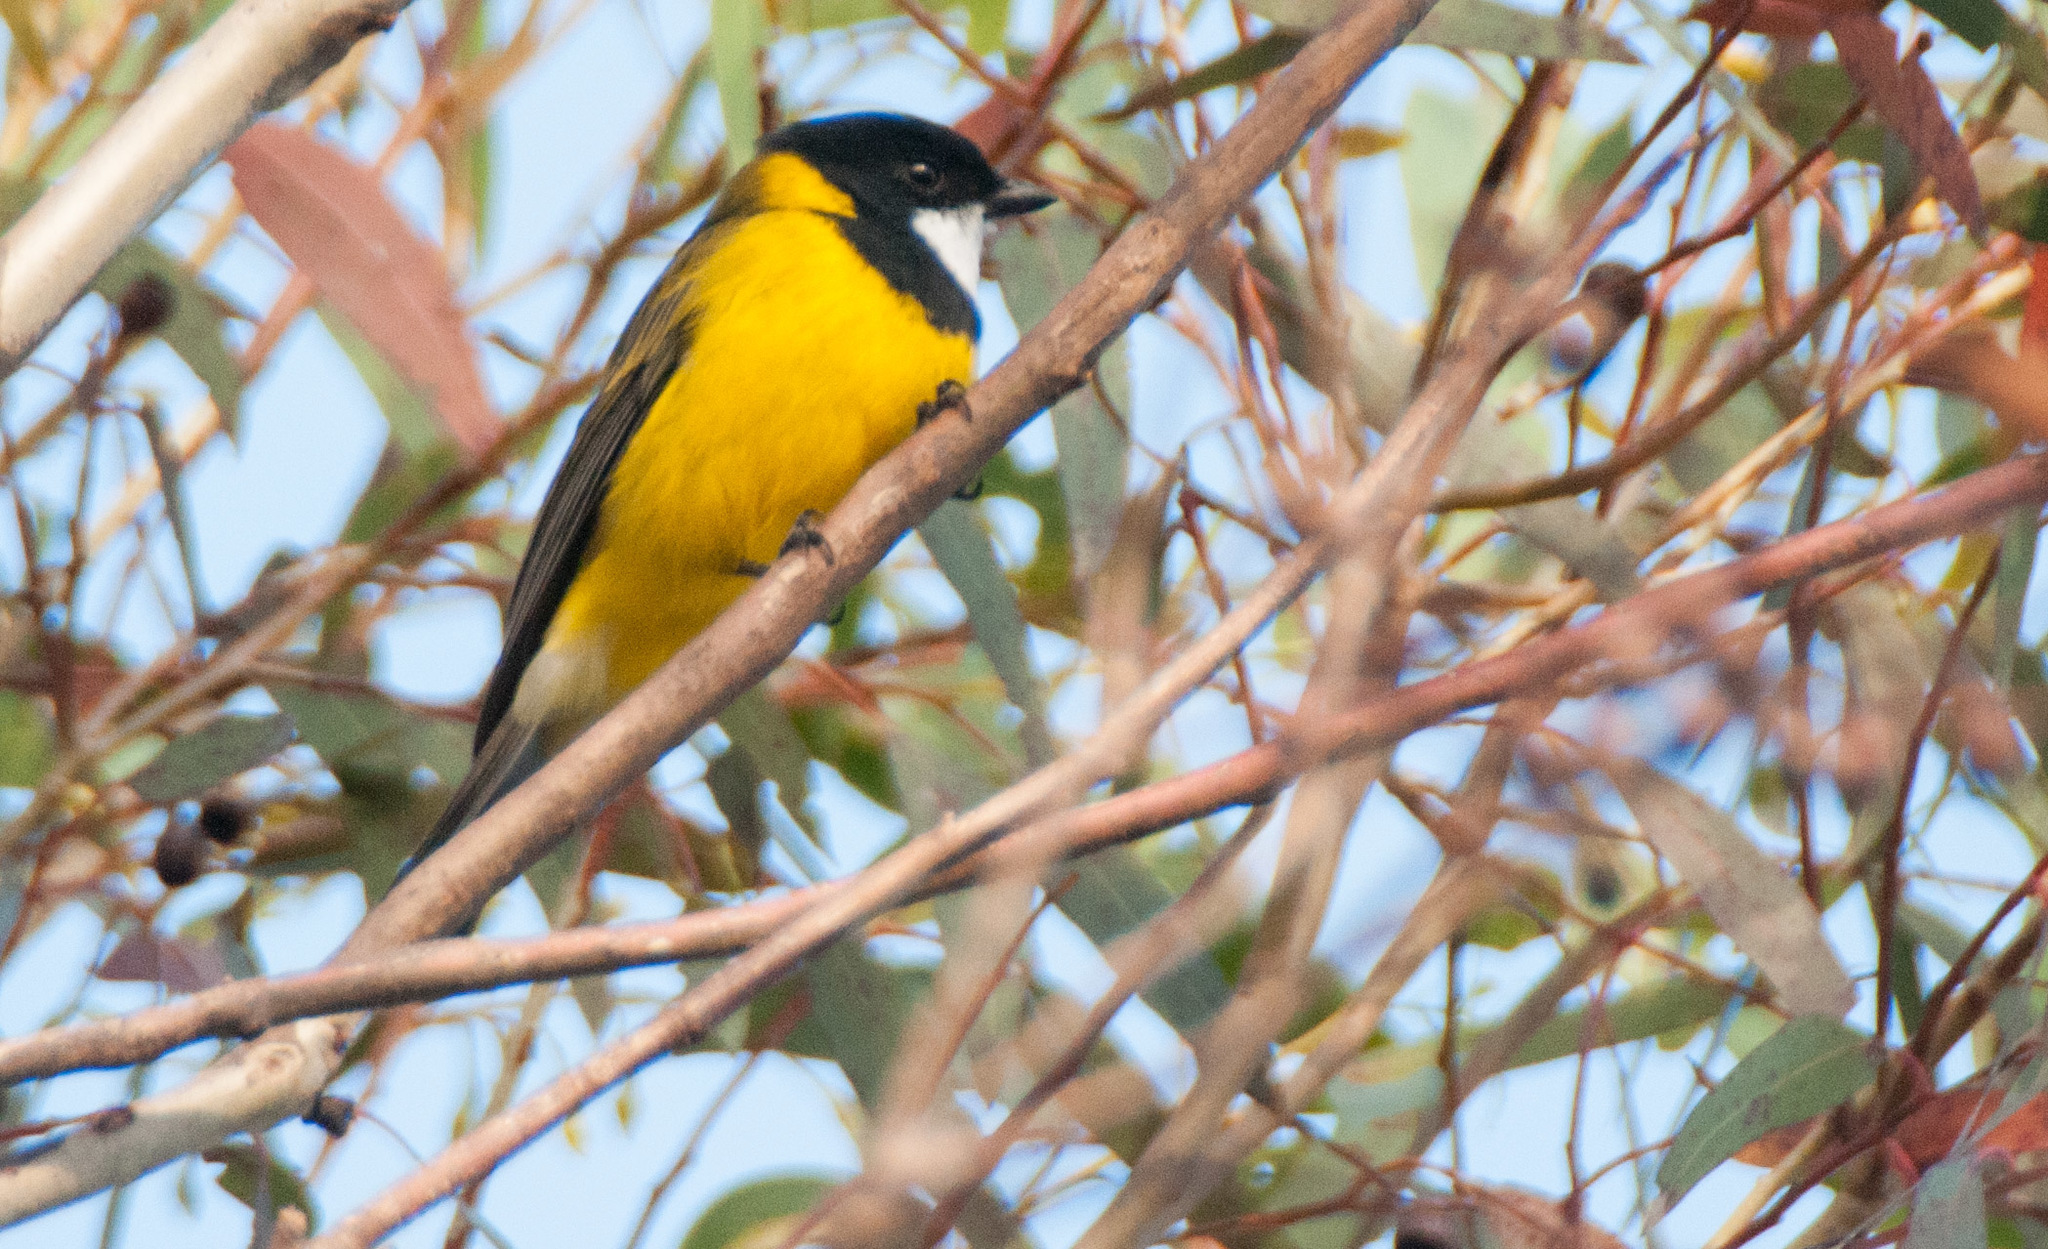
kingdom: Animalia
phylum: Chordata
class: Aves
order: Passeriformes
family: Pachycephalidae
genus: Pachycephala
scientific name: Pachycephala fuliginosa
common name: Western whistler
